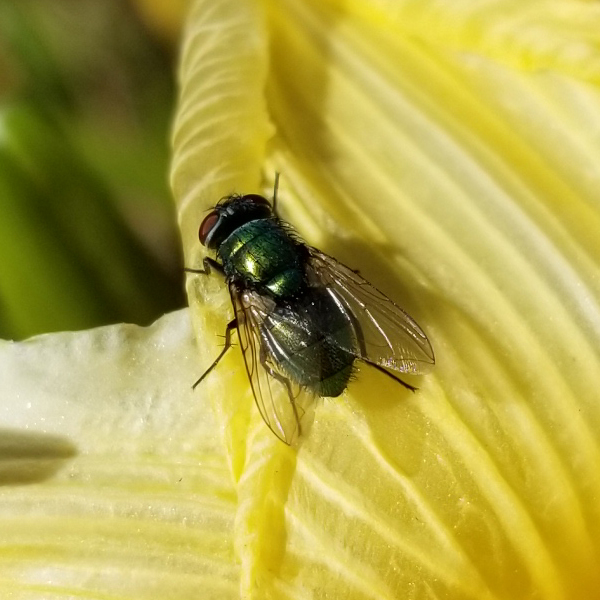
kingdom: Animalia
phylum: Arthropoda
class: Insecta
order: Diptera
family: Calliphoridae
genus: Lucilia
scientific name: Lucilia sericata
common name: Blow fly
